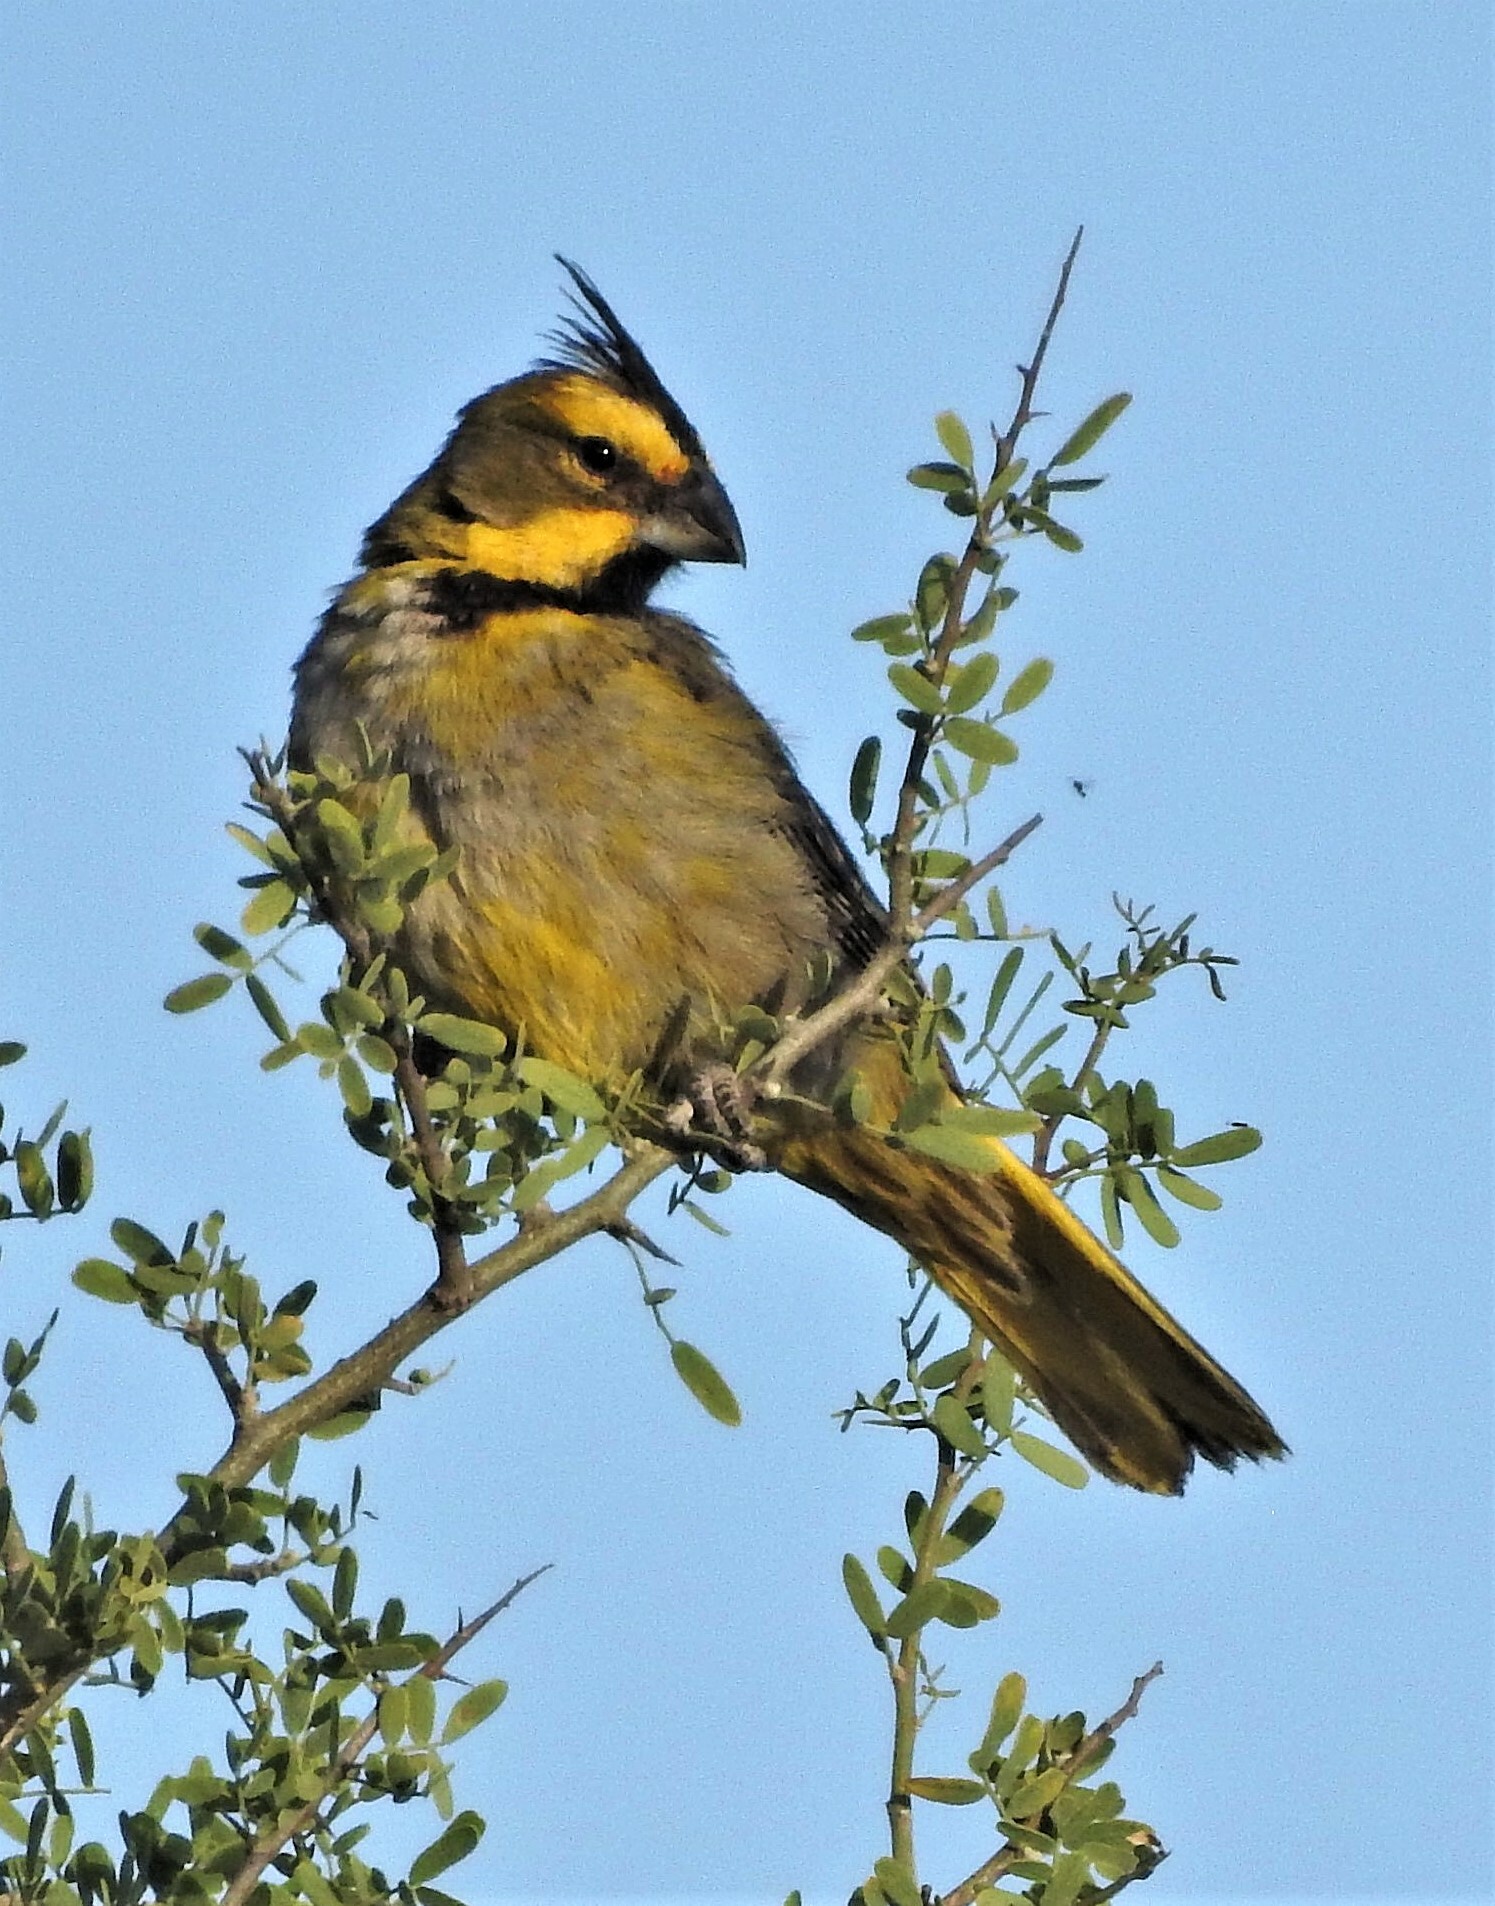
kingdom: Animalia
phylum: Chordata
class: Aves
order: Passeriformes
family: Thraupidae
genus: Gubernatrix
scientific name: Gubernatrix cristata
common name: Yellow cardinal
